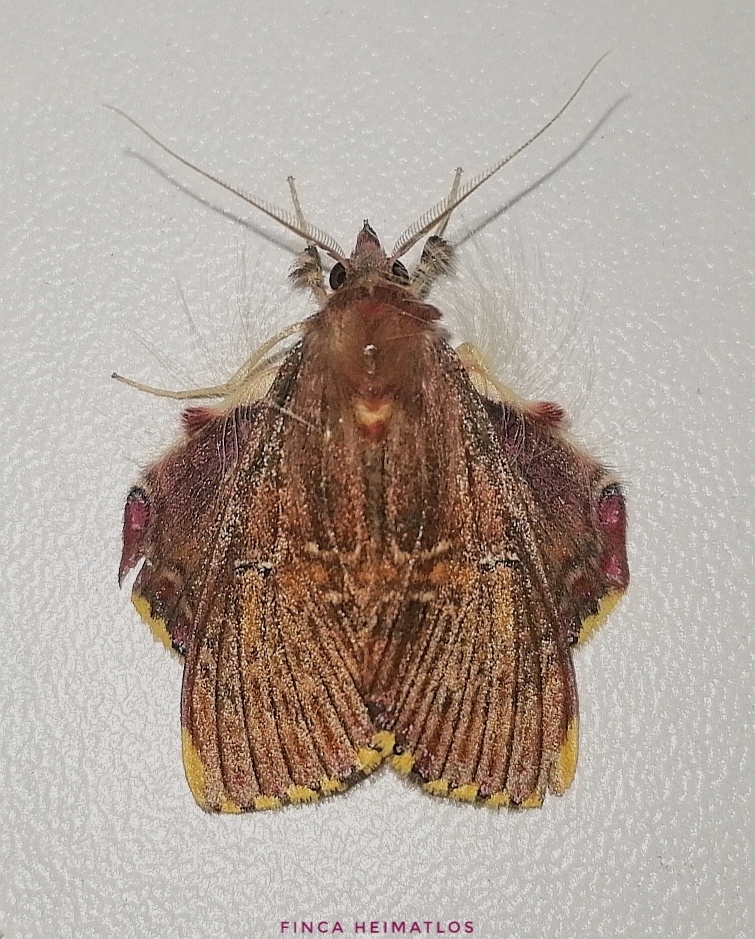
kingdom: Animalia
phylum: Arthropoda
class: Insecta
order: Lepidoptera
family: Erebidae
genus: Sosxetra
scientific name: Sosxetra grata
